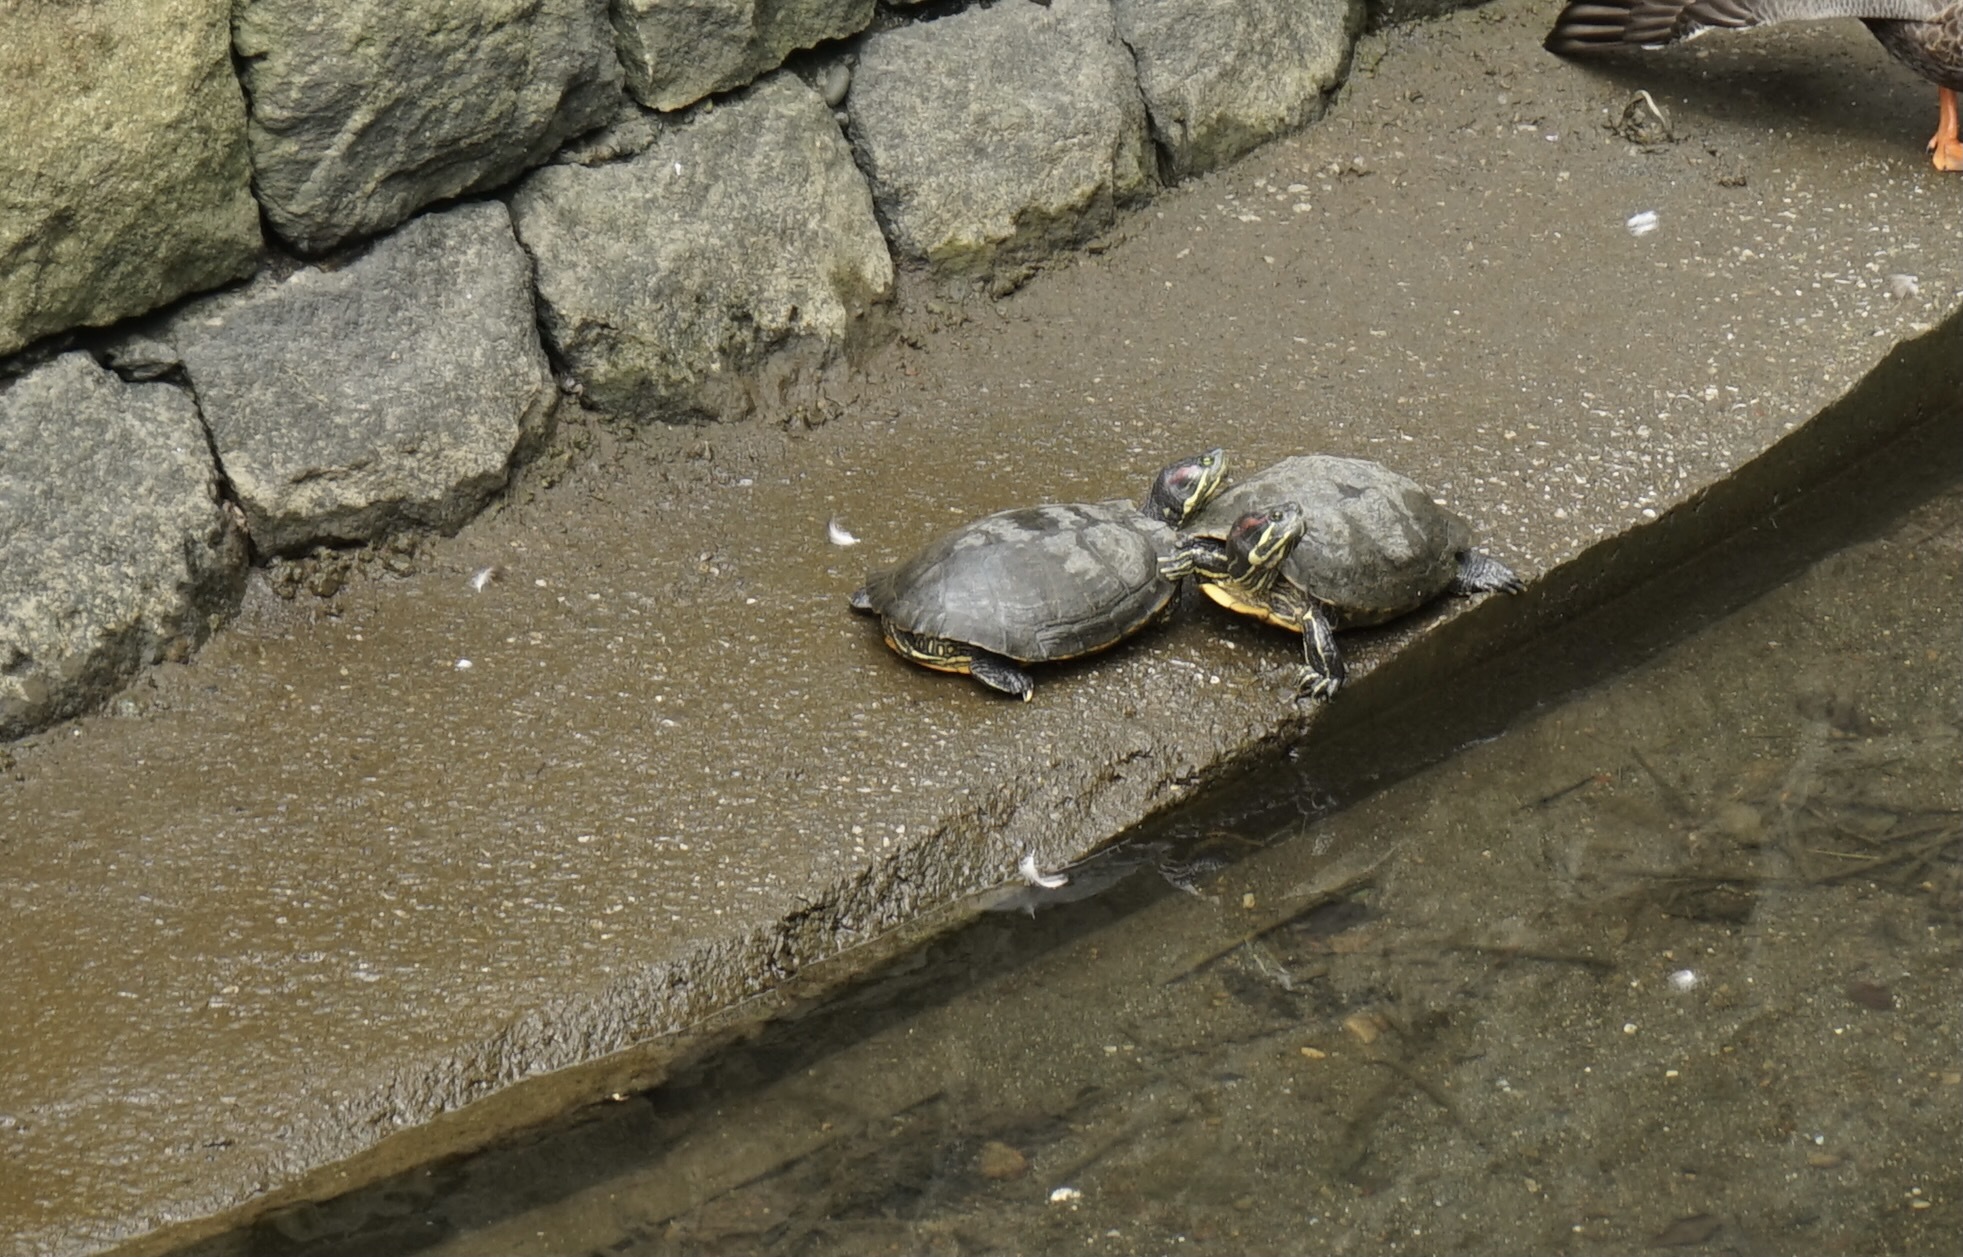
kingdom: Animalia
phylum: Chordata
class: Testudines
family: Emydidae
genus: Trachemys
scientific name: Trachemys scripta
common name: Slider
